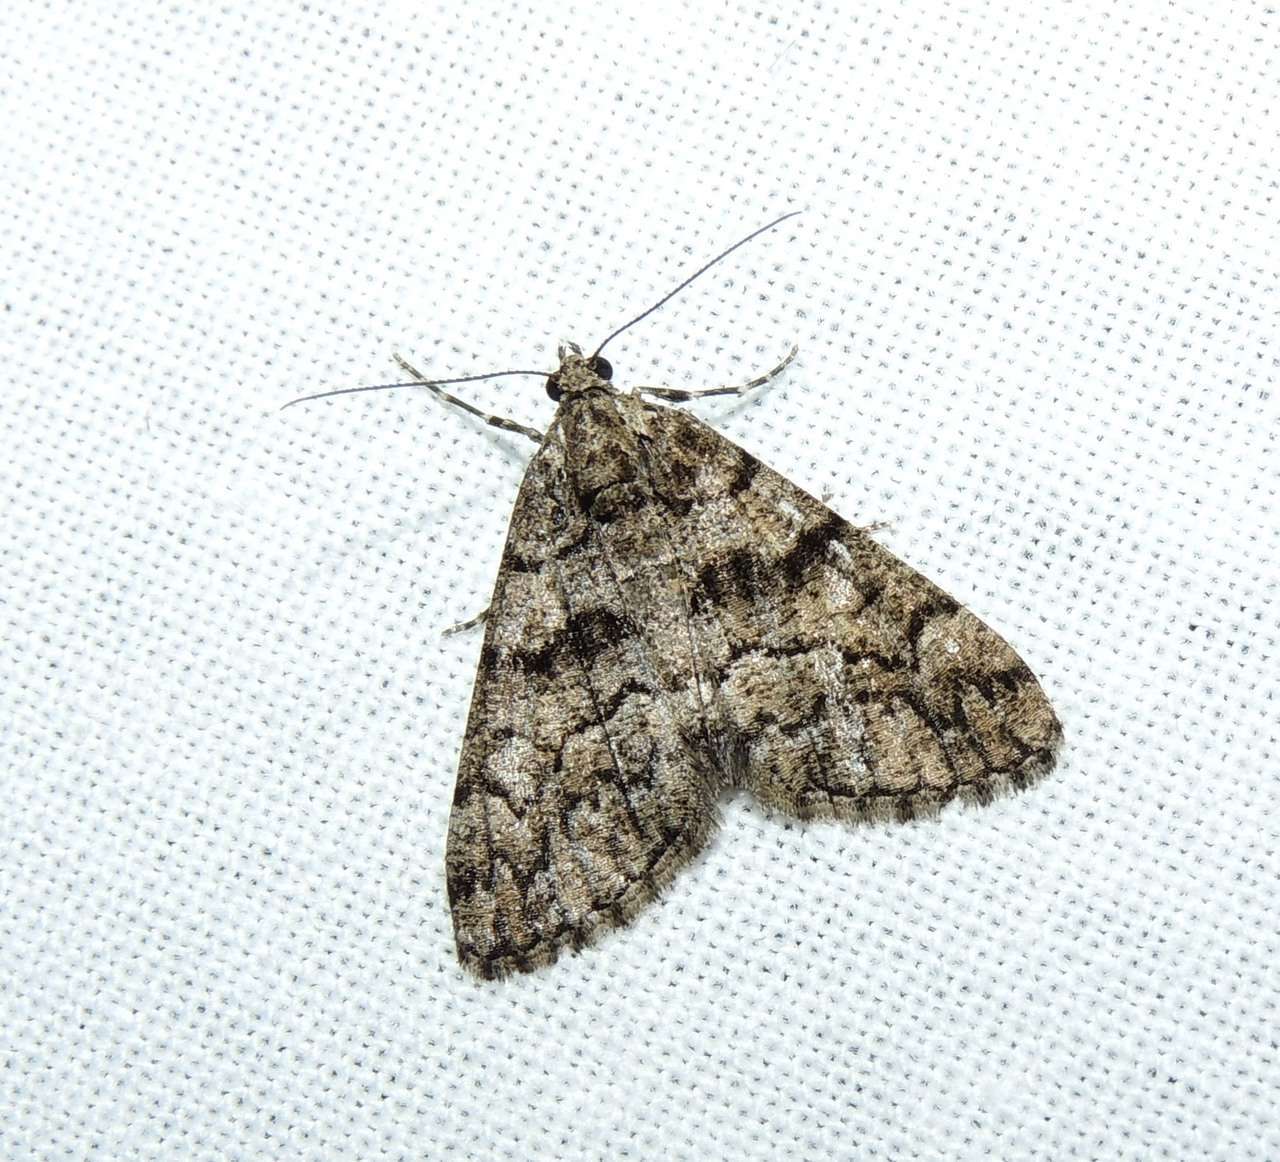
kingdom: Animalia
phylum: Arthropoda
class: Insecta
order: Lepidoptera
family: Geometridae
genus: Lipogya
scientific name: Lipogya exprimataria
